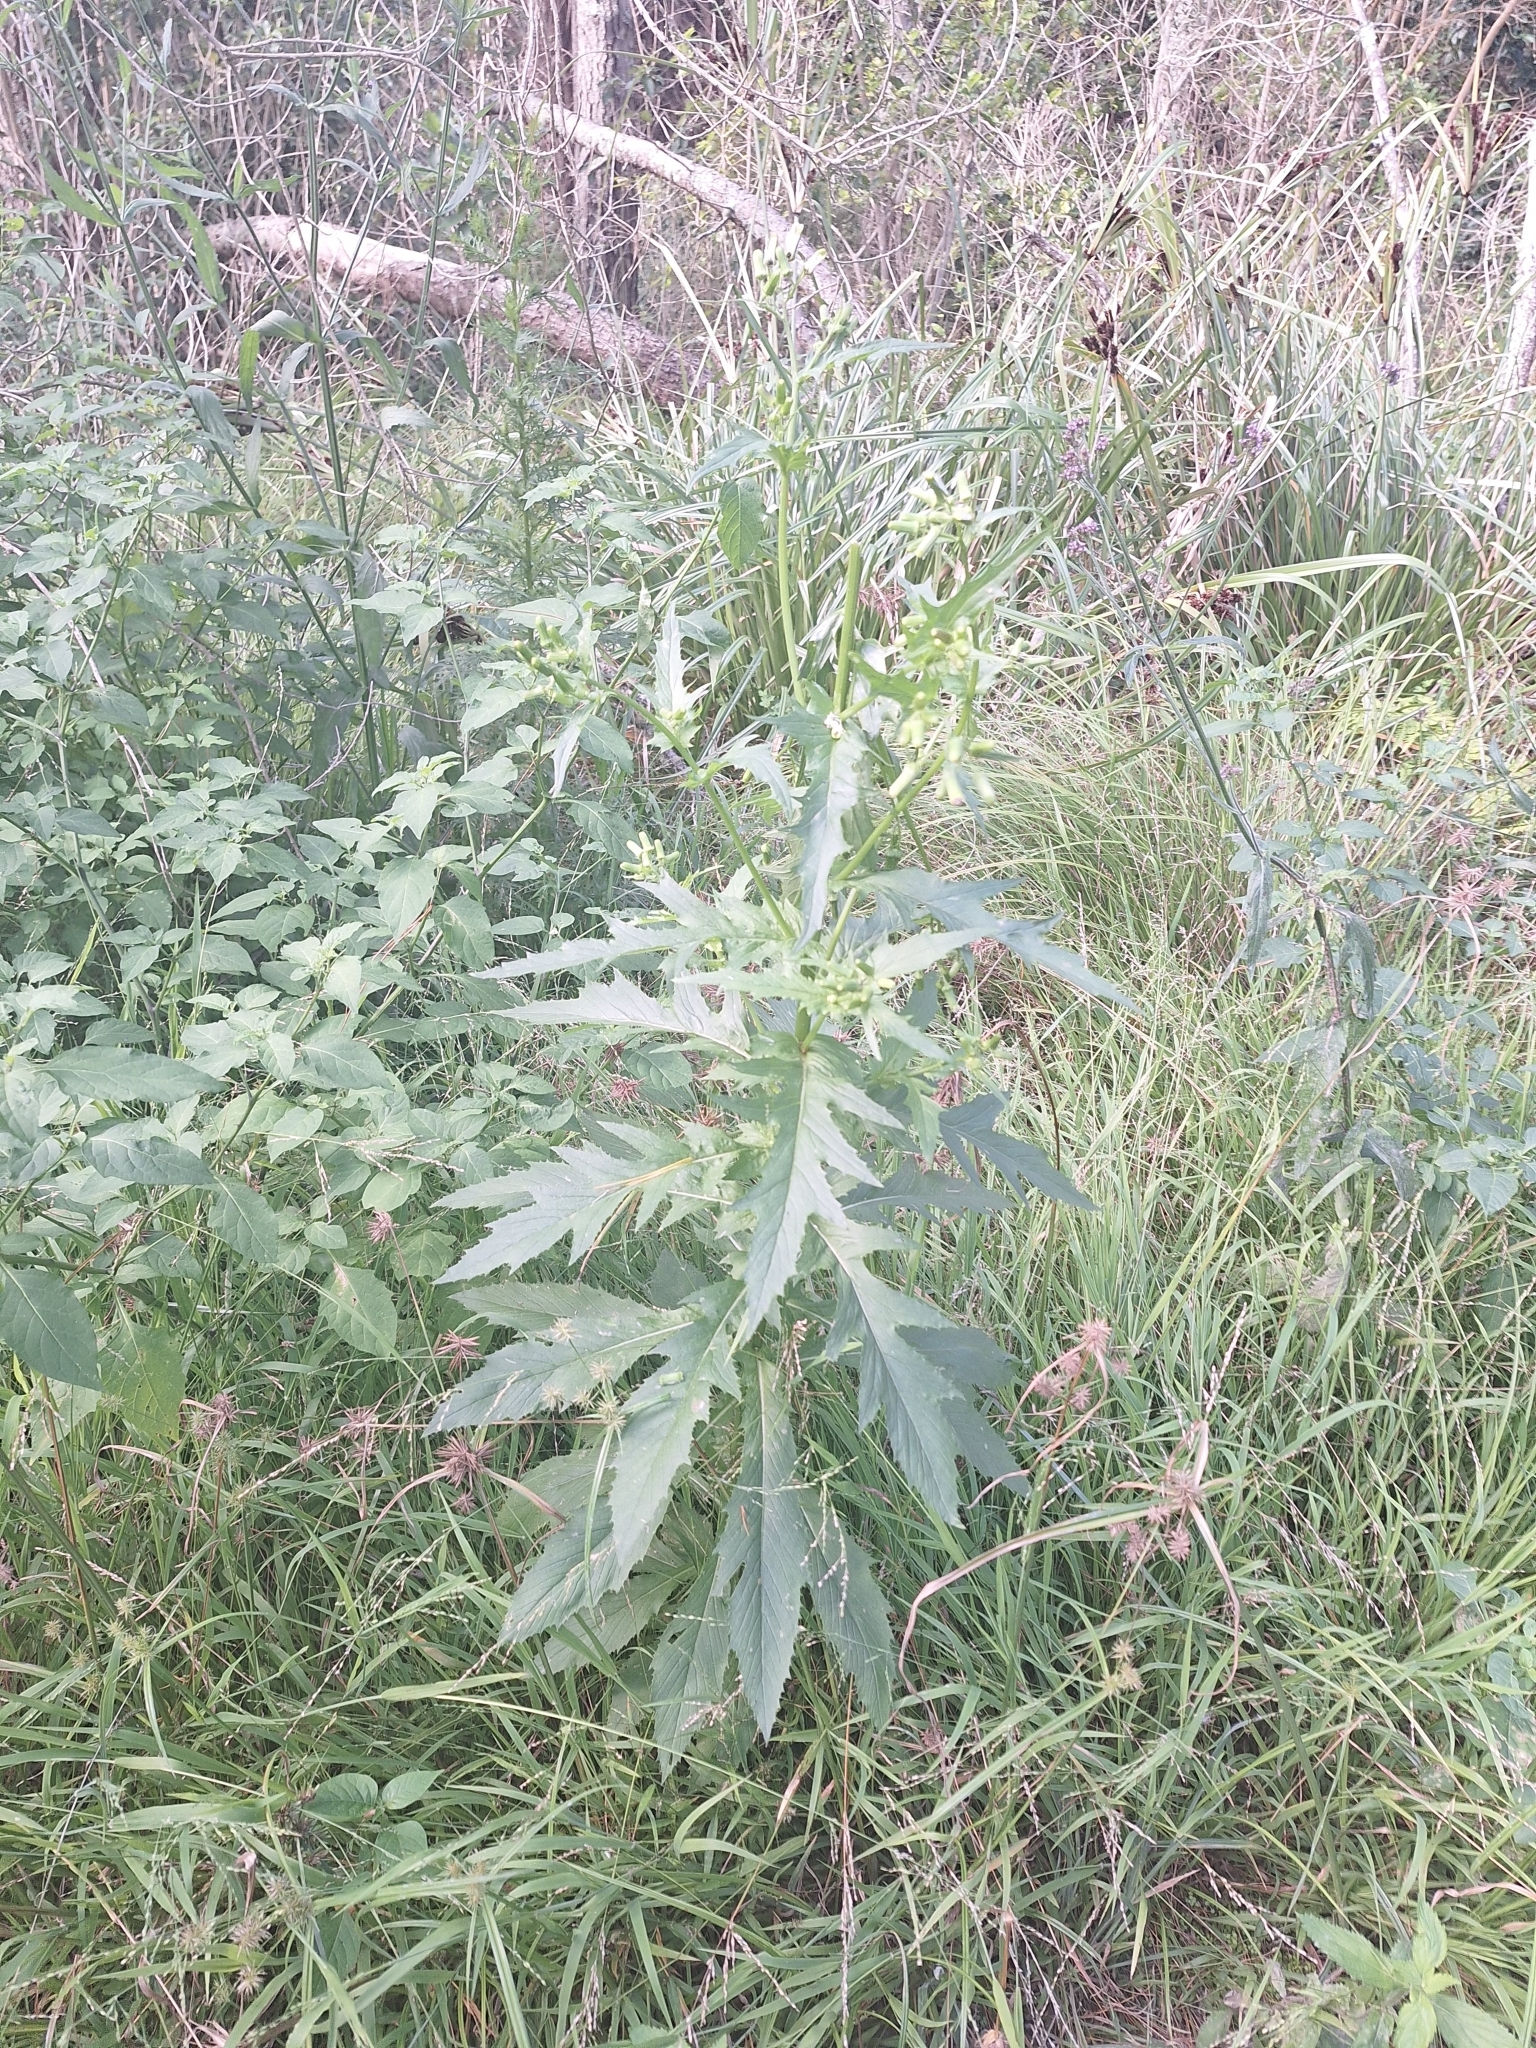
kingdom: Plantae
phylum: Tracheophyta
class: Magnoliopsida
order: Asterales
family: Asteraceae
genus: Erechtites
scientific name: Erechtites hieraciifolius
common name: American burnweed
